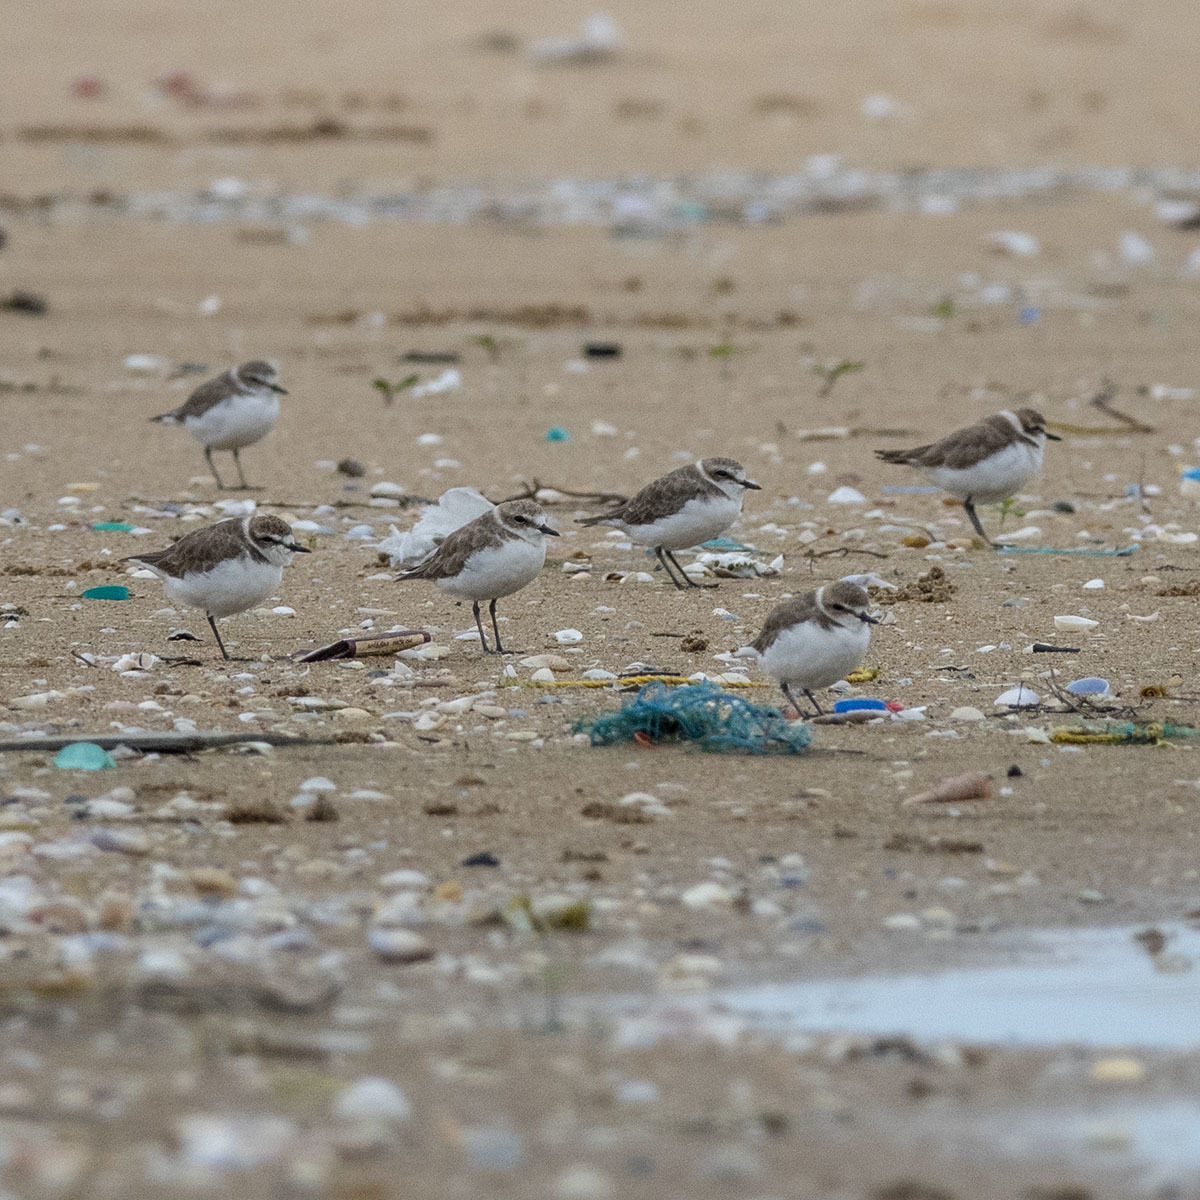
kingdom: Animalia
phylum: Chordata
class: Aves
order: Charadriiformes
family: Charadriidae
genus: Charadrius
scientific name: Charadrius alexandrinus
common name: Kentish plover
